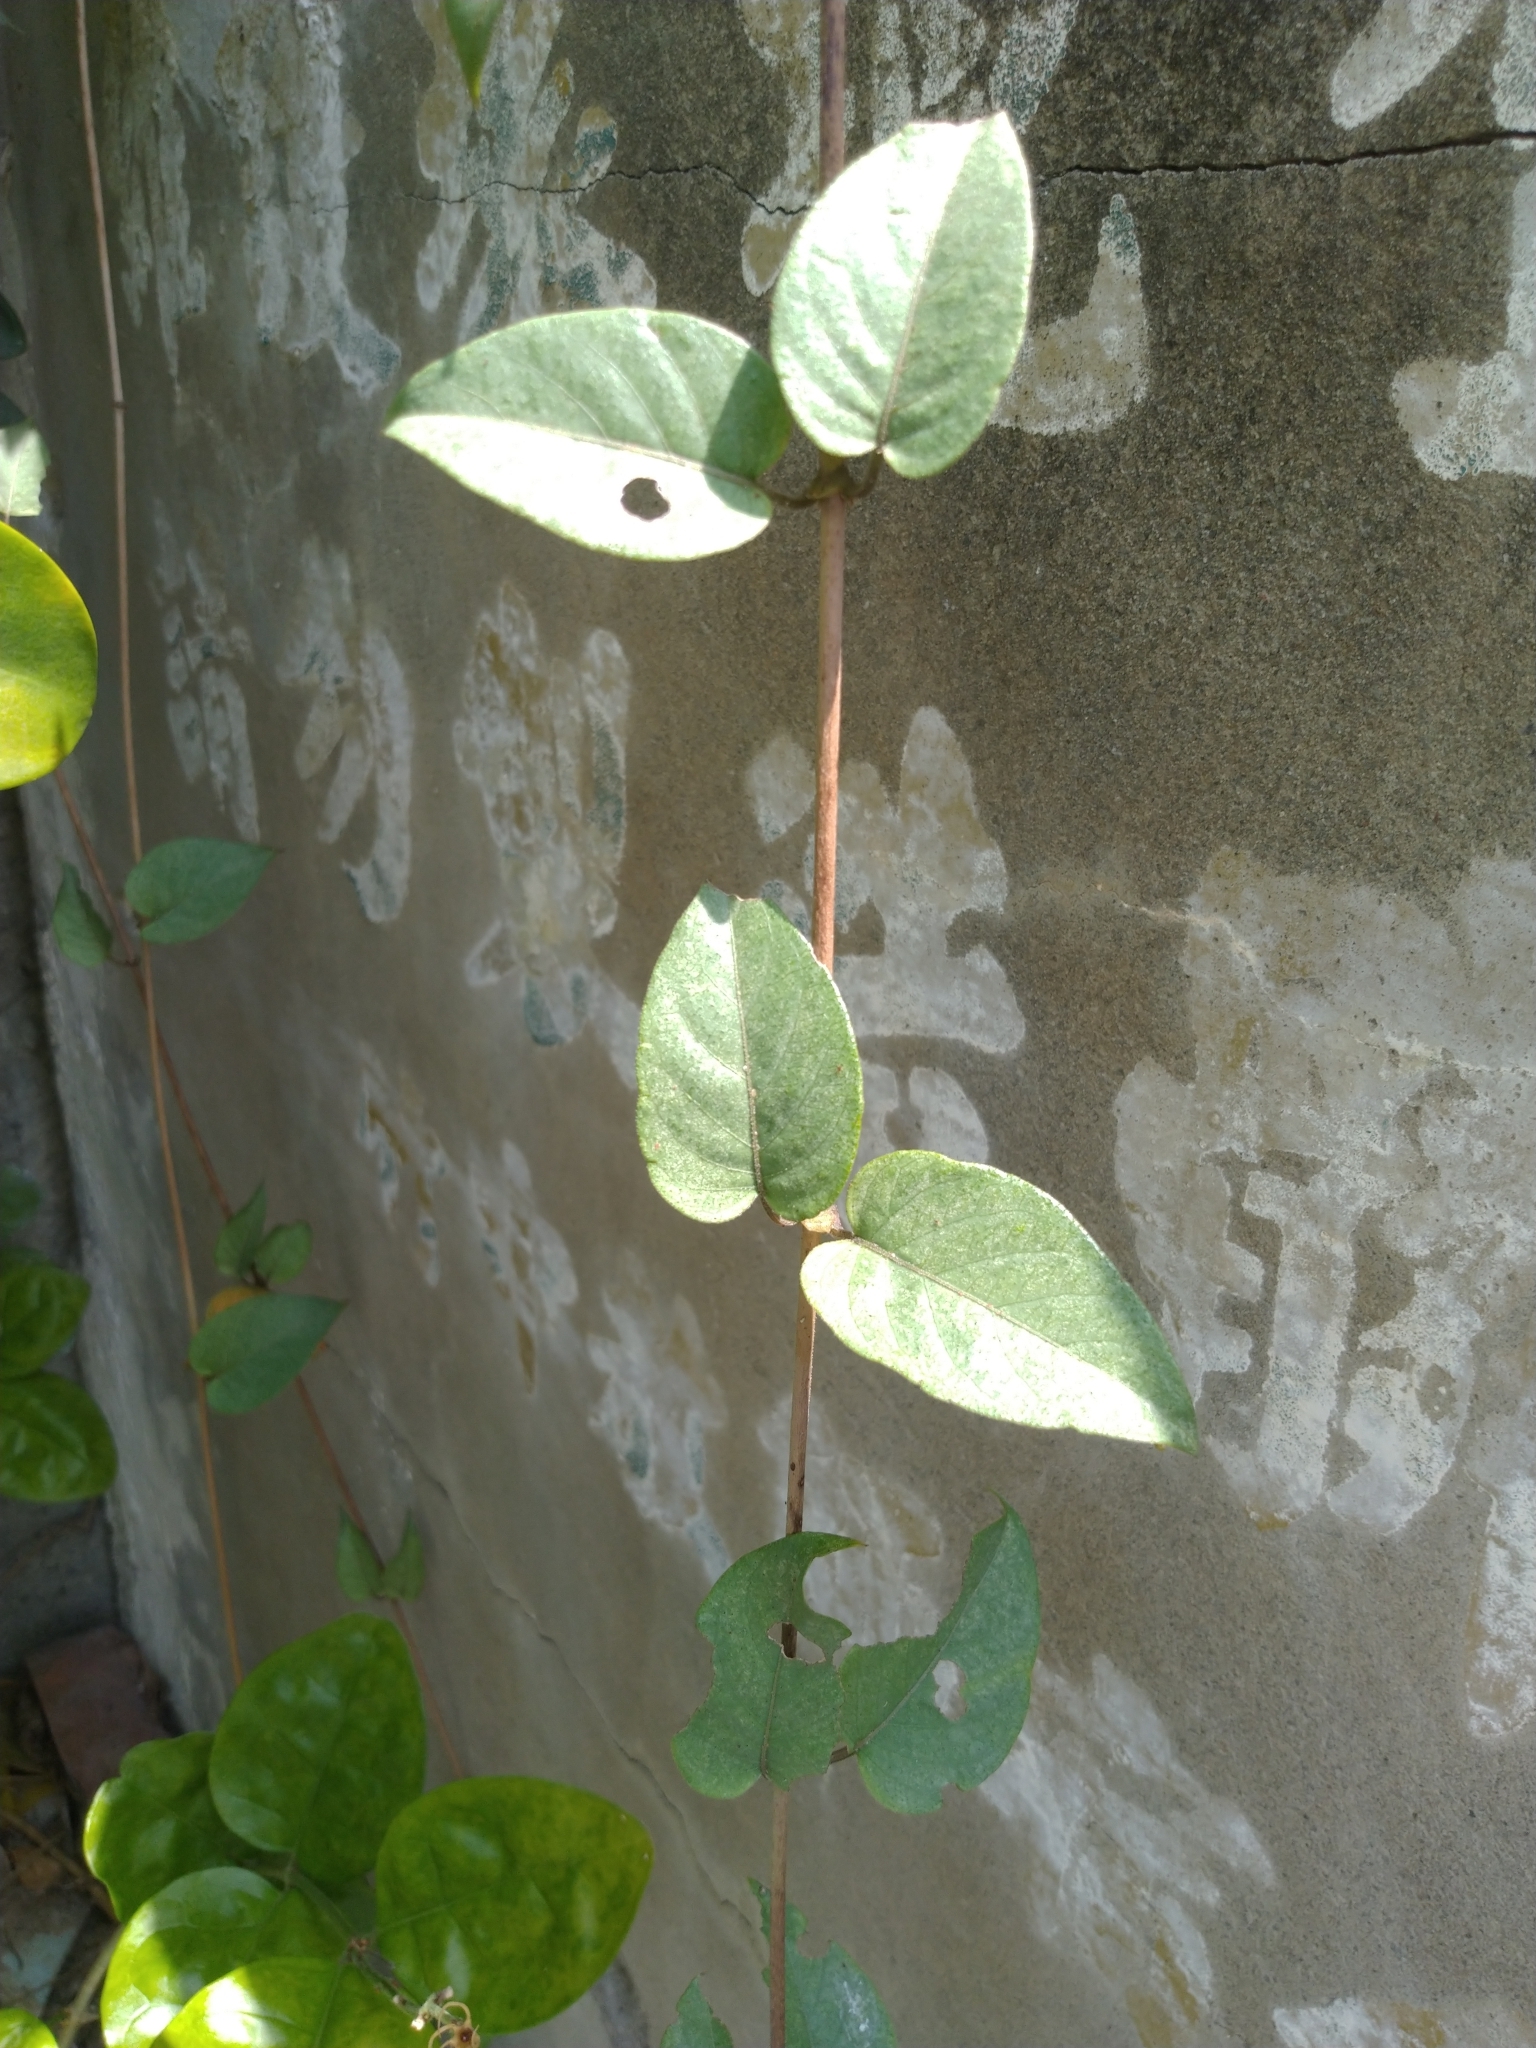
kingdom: Plantae
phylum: Tracheophyta
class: Magnoliopsida
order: Gentianales
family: Rubiaceae
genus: Paederia
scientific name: Paederia foetida
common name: Stinkvine
